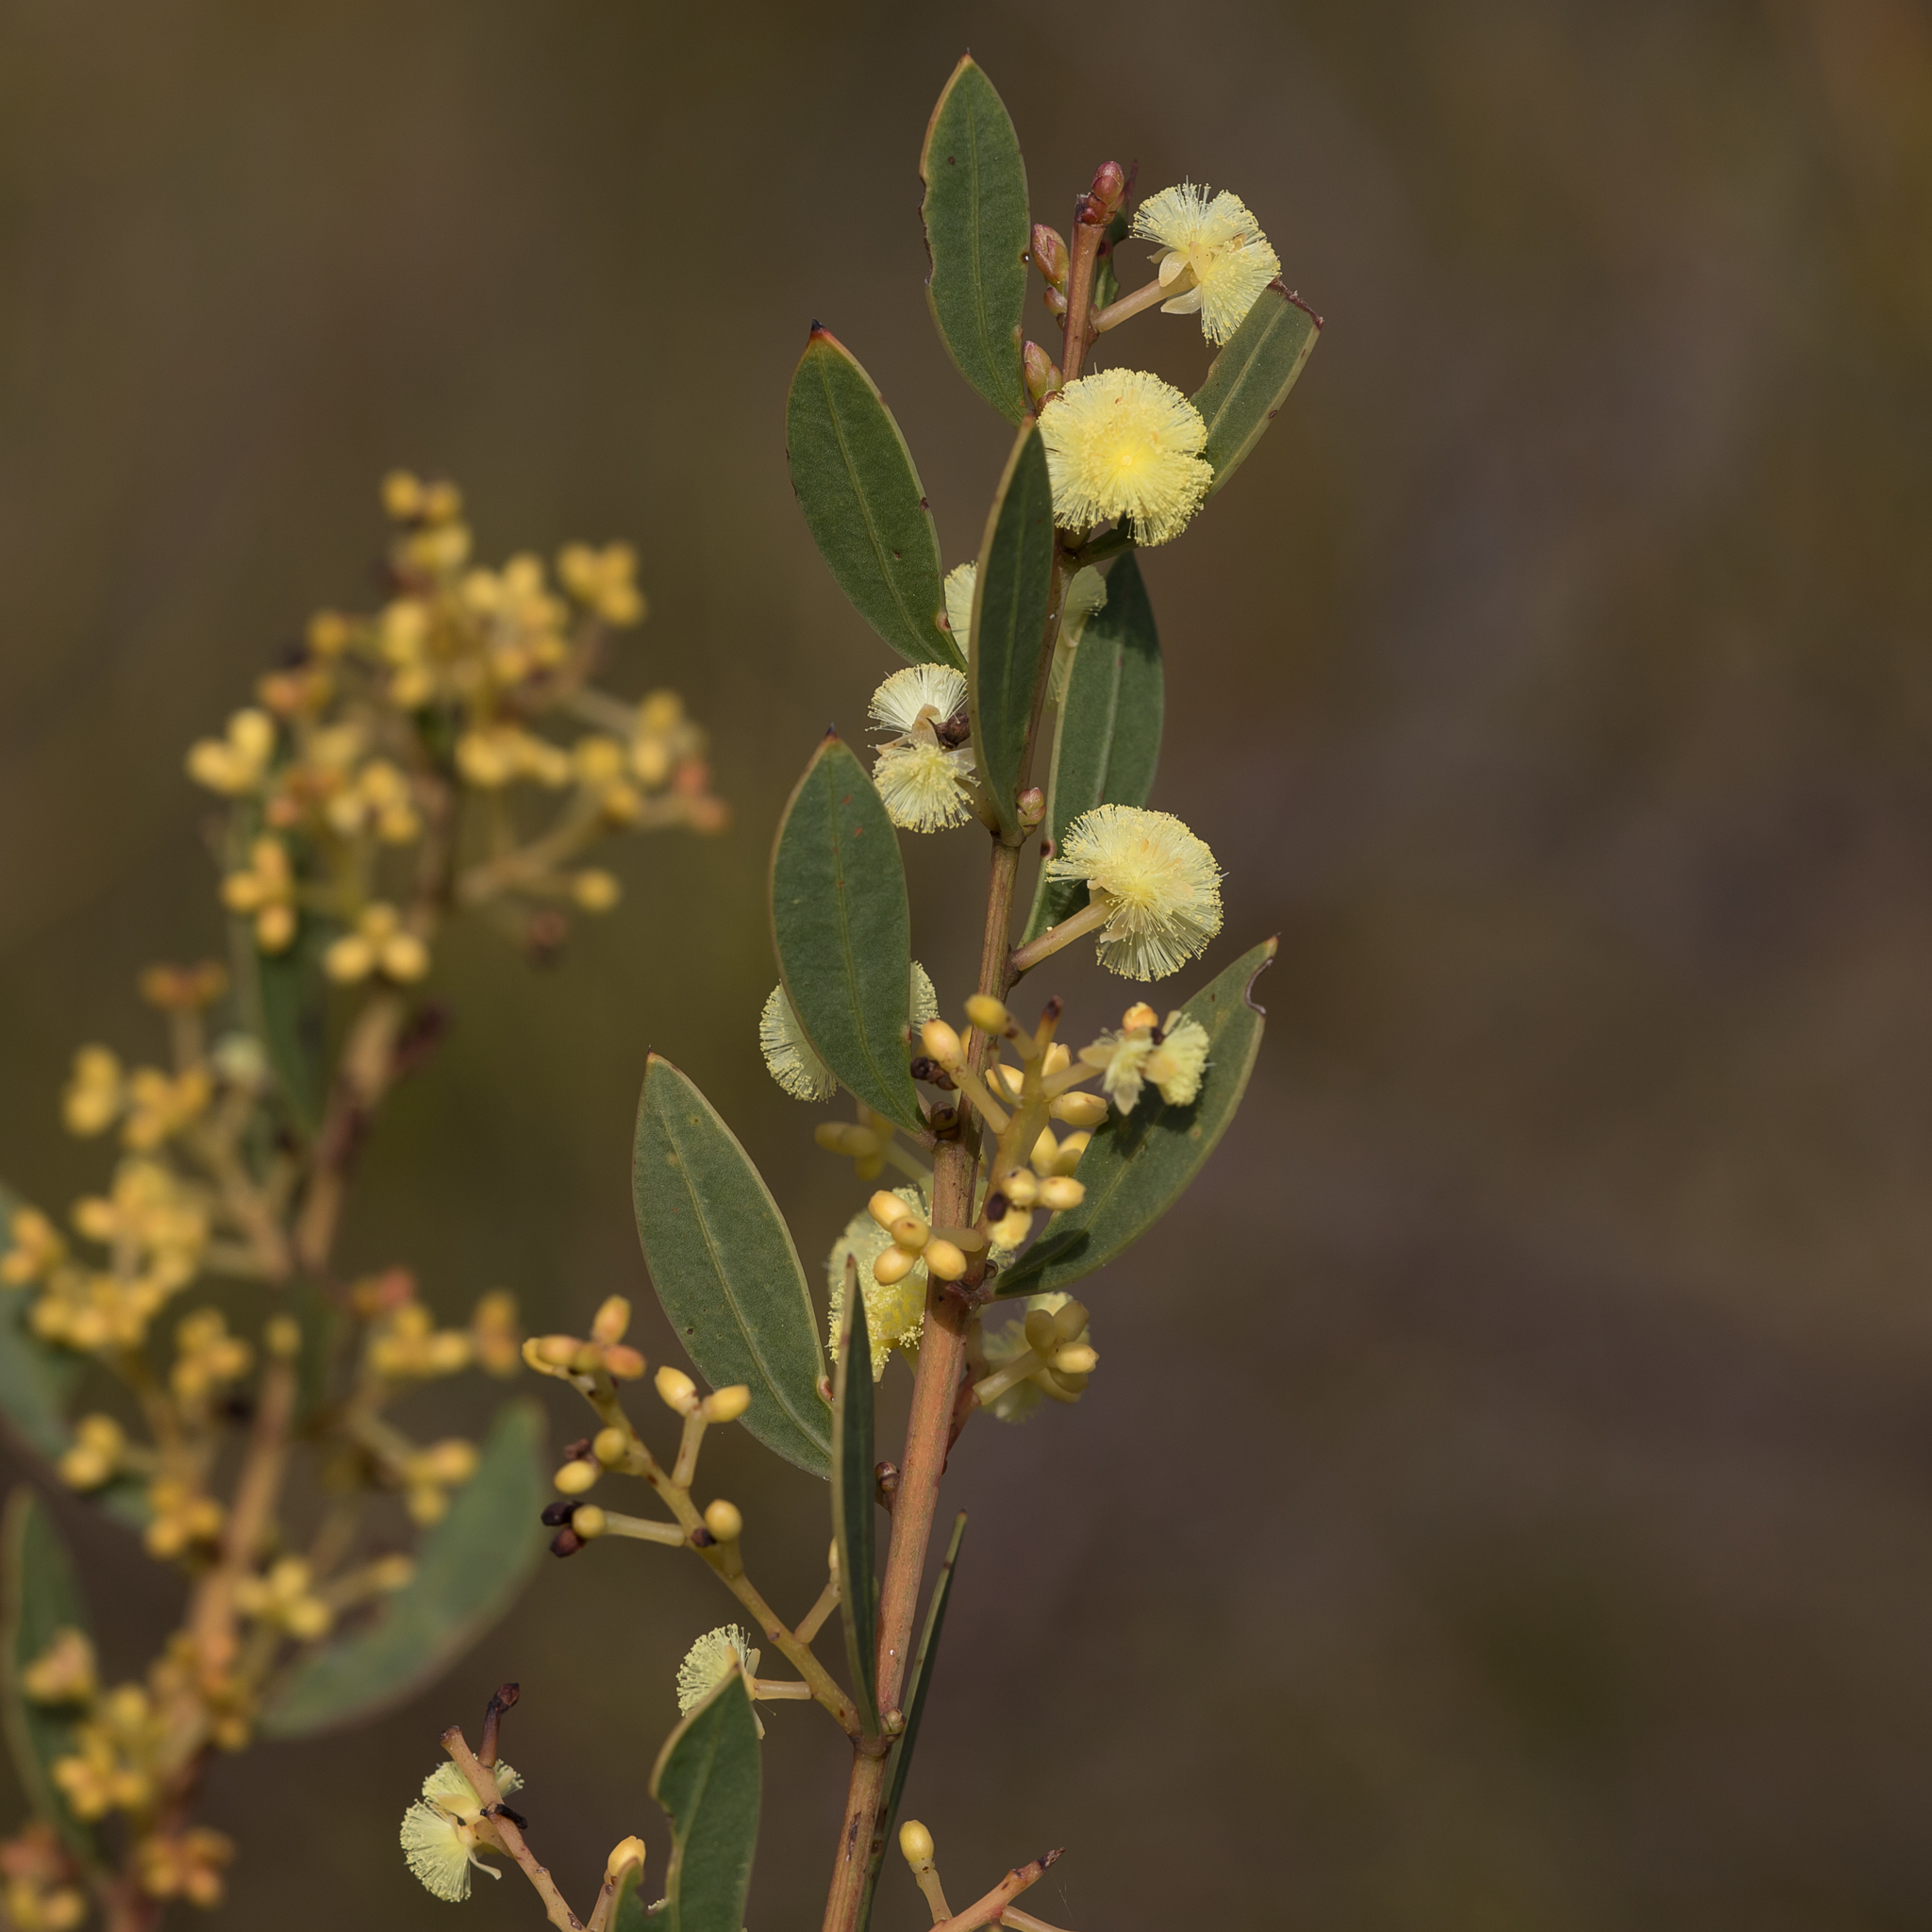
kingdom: Plantae
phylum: Tracheophyta
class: Magnoliopsida
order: Fabales
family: Fabaceae
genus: Acacia
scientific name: Acacia myrtifolia
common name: Myrtle wattle
